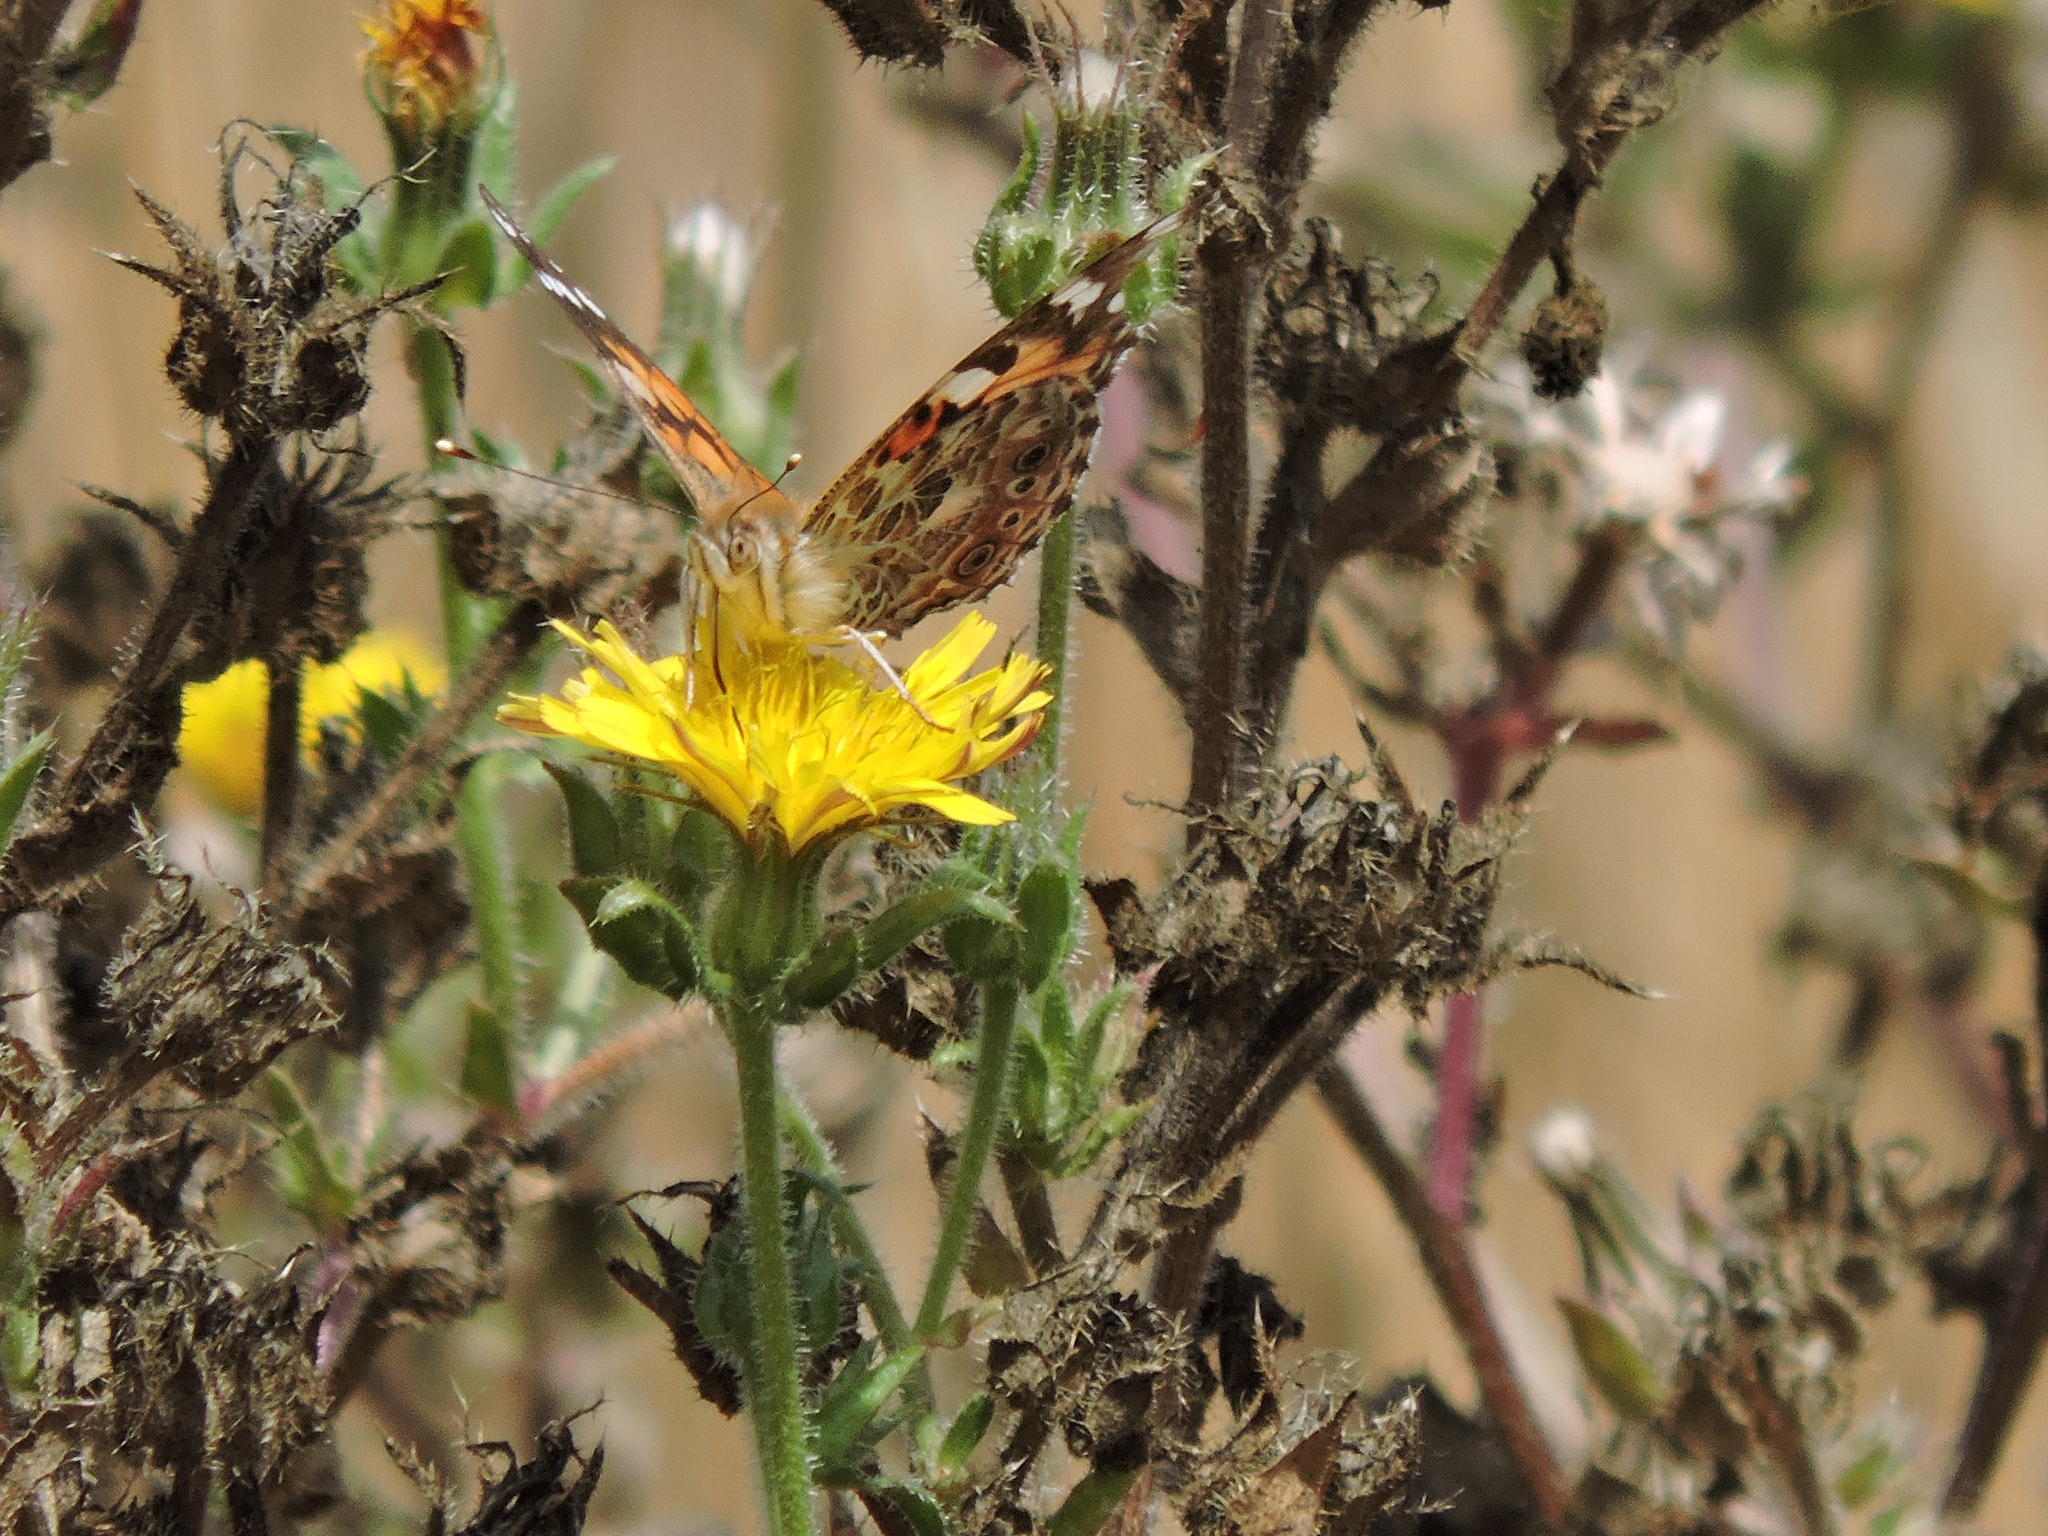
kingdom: Animalia
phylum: Arthropoda
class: Insecta
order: Lepidoptera
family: Nymphalidae
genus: Vanessa
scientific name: Vanessa cardui
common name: Painted lady
